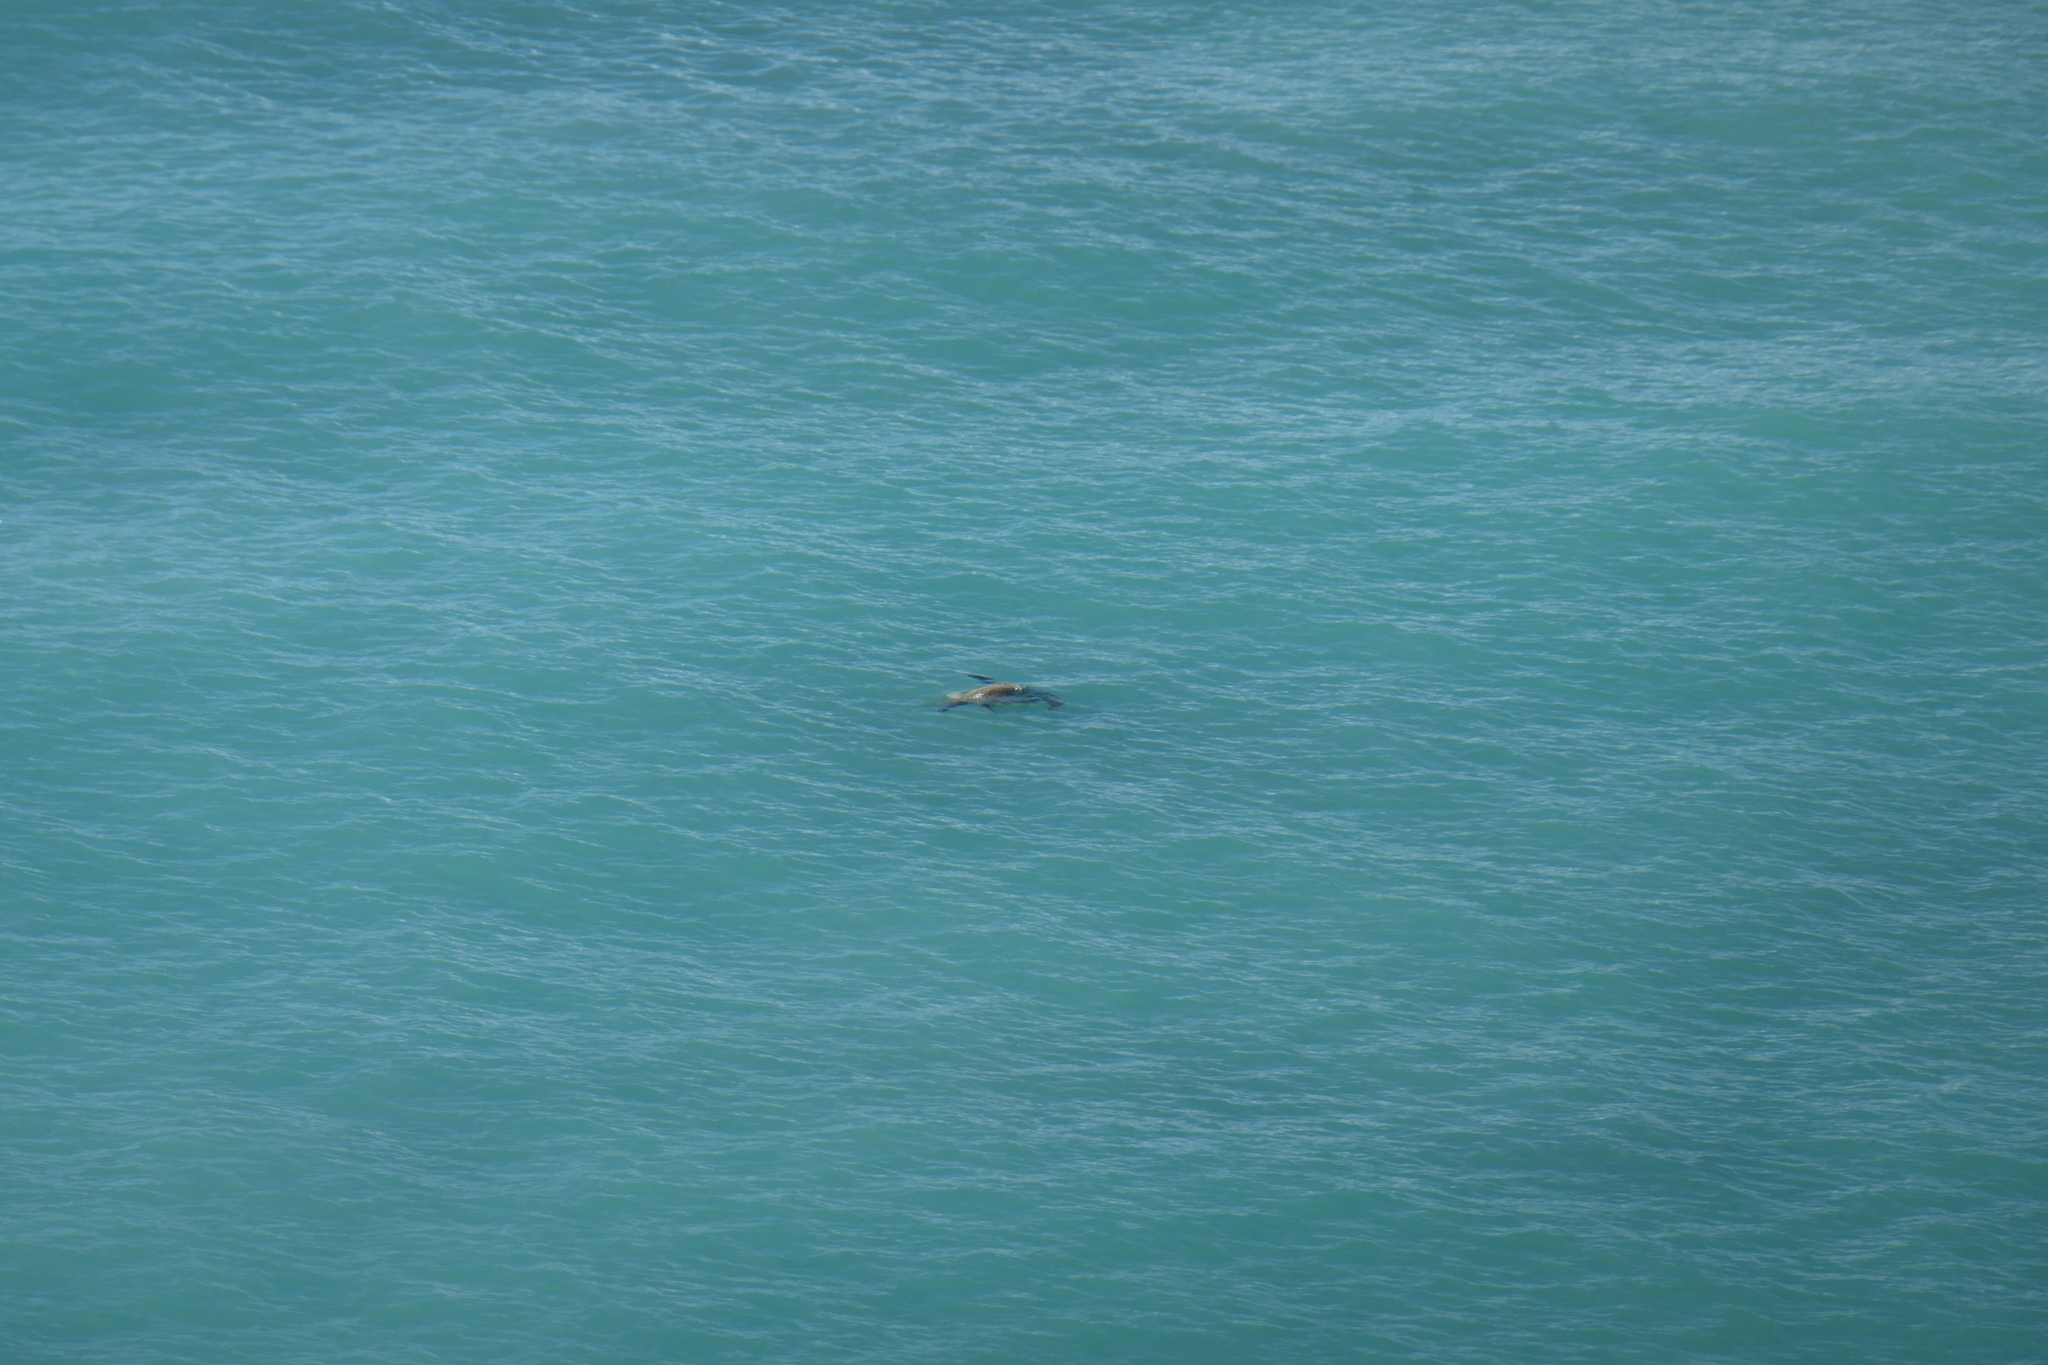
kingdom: Animalia
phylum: Chordata
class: Testudines
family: Cheloniidae
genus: Chelonia
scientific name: Chelonia mydas
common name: Green turtle
